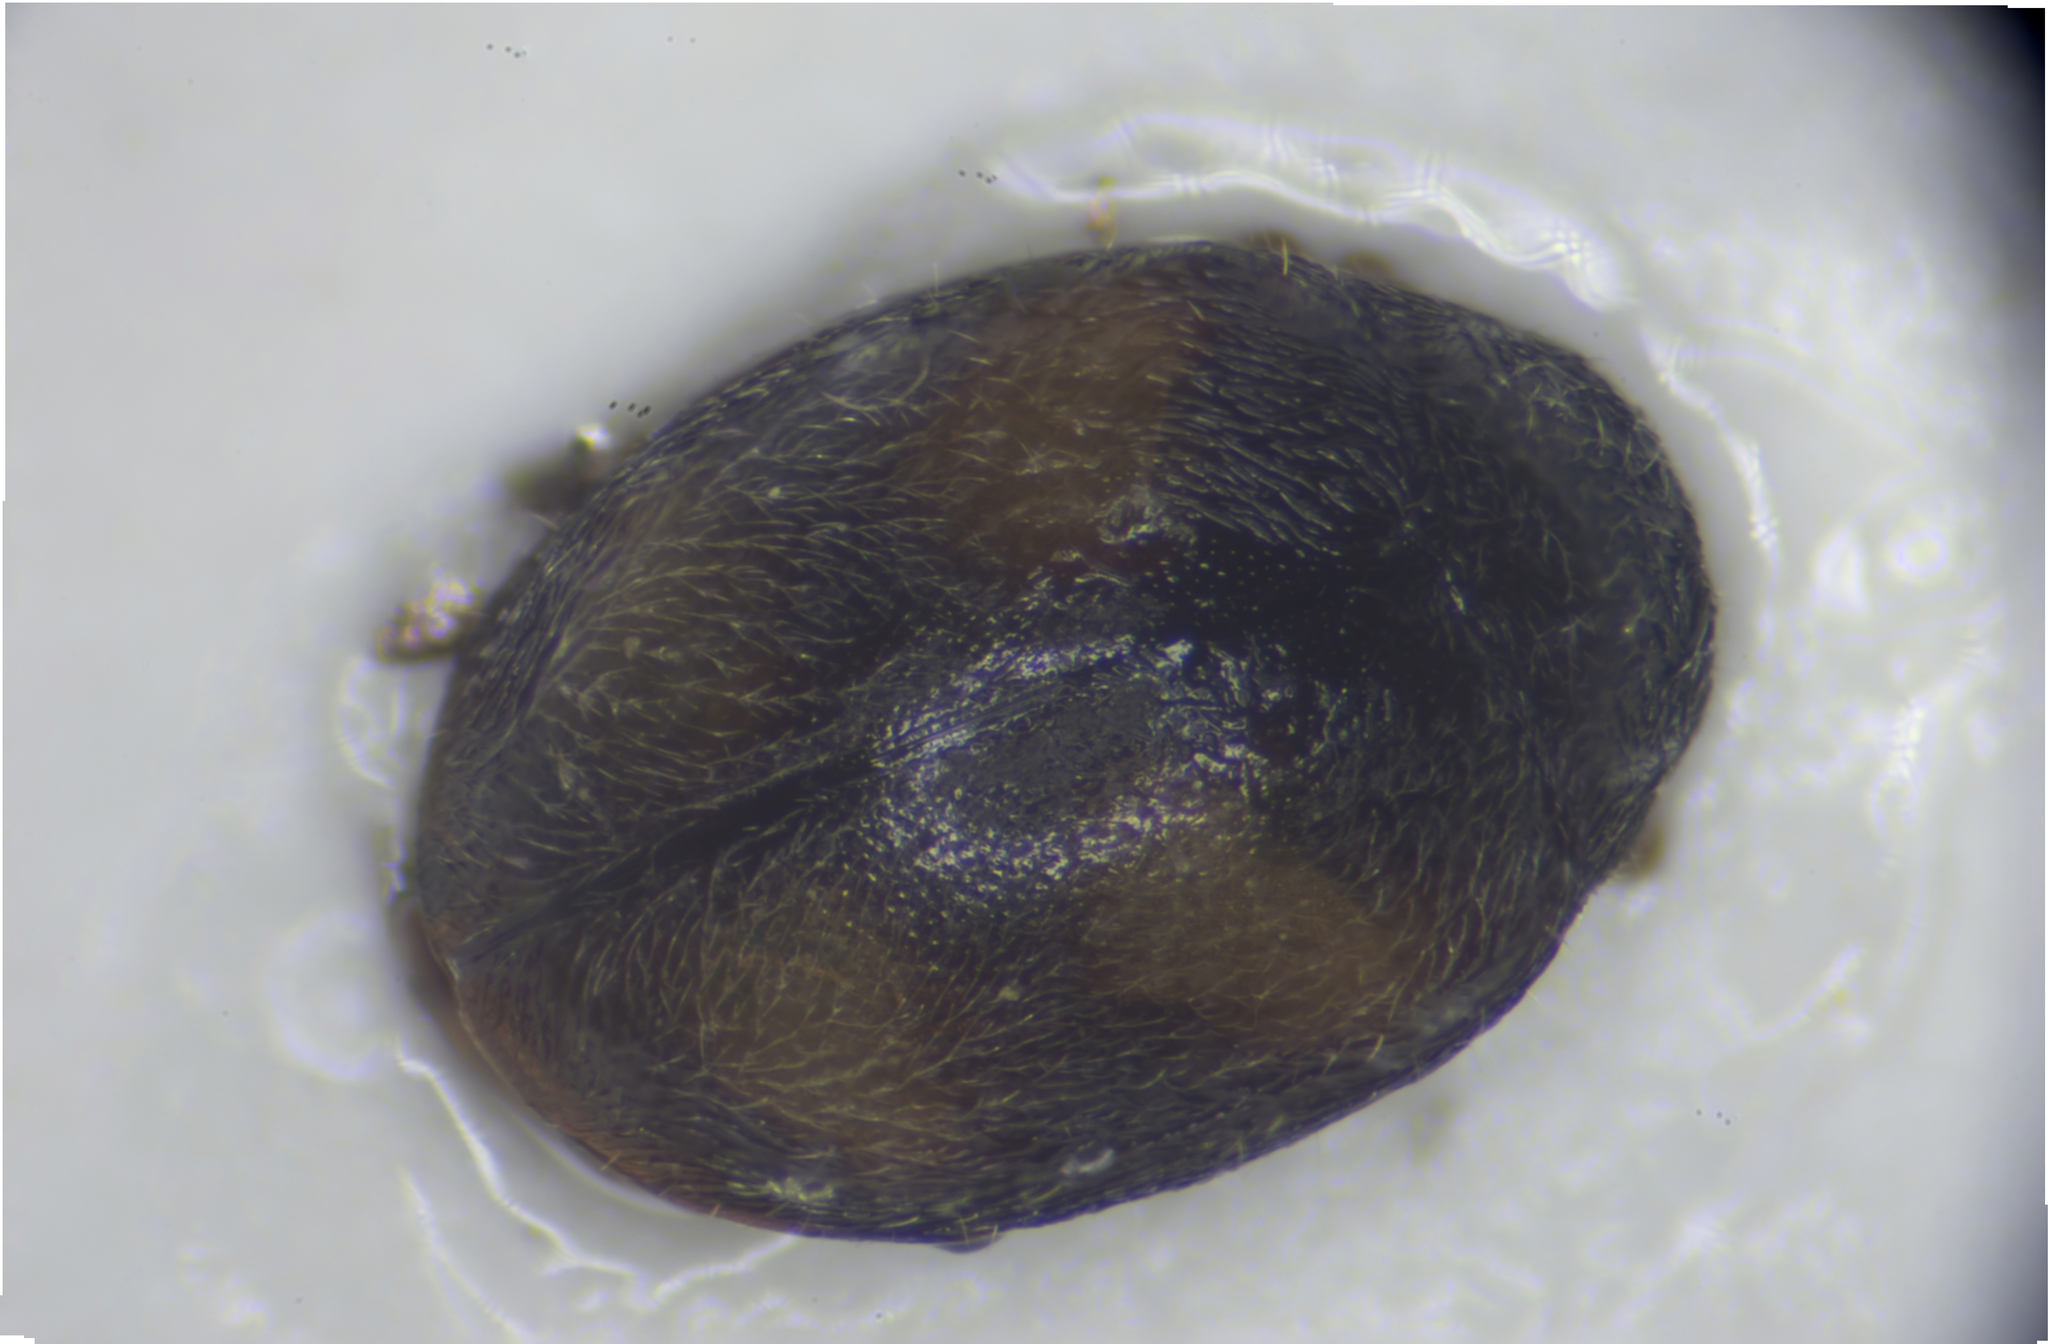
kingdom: Animalia
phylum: Arthropoda
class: Insecta
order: Coleoptera
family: Coccinellidae
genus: Nephus
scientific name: Nephus quadrimaculatus
